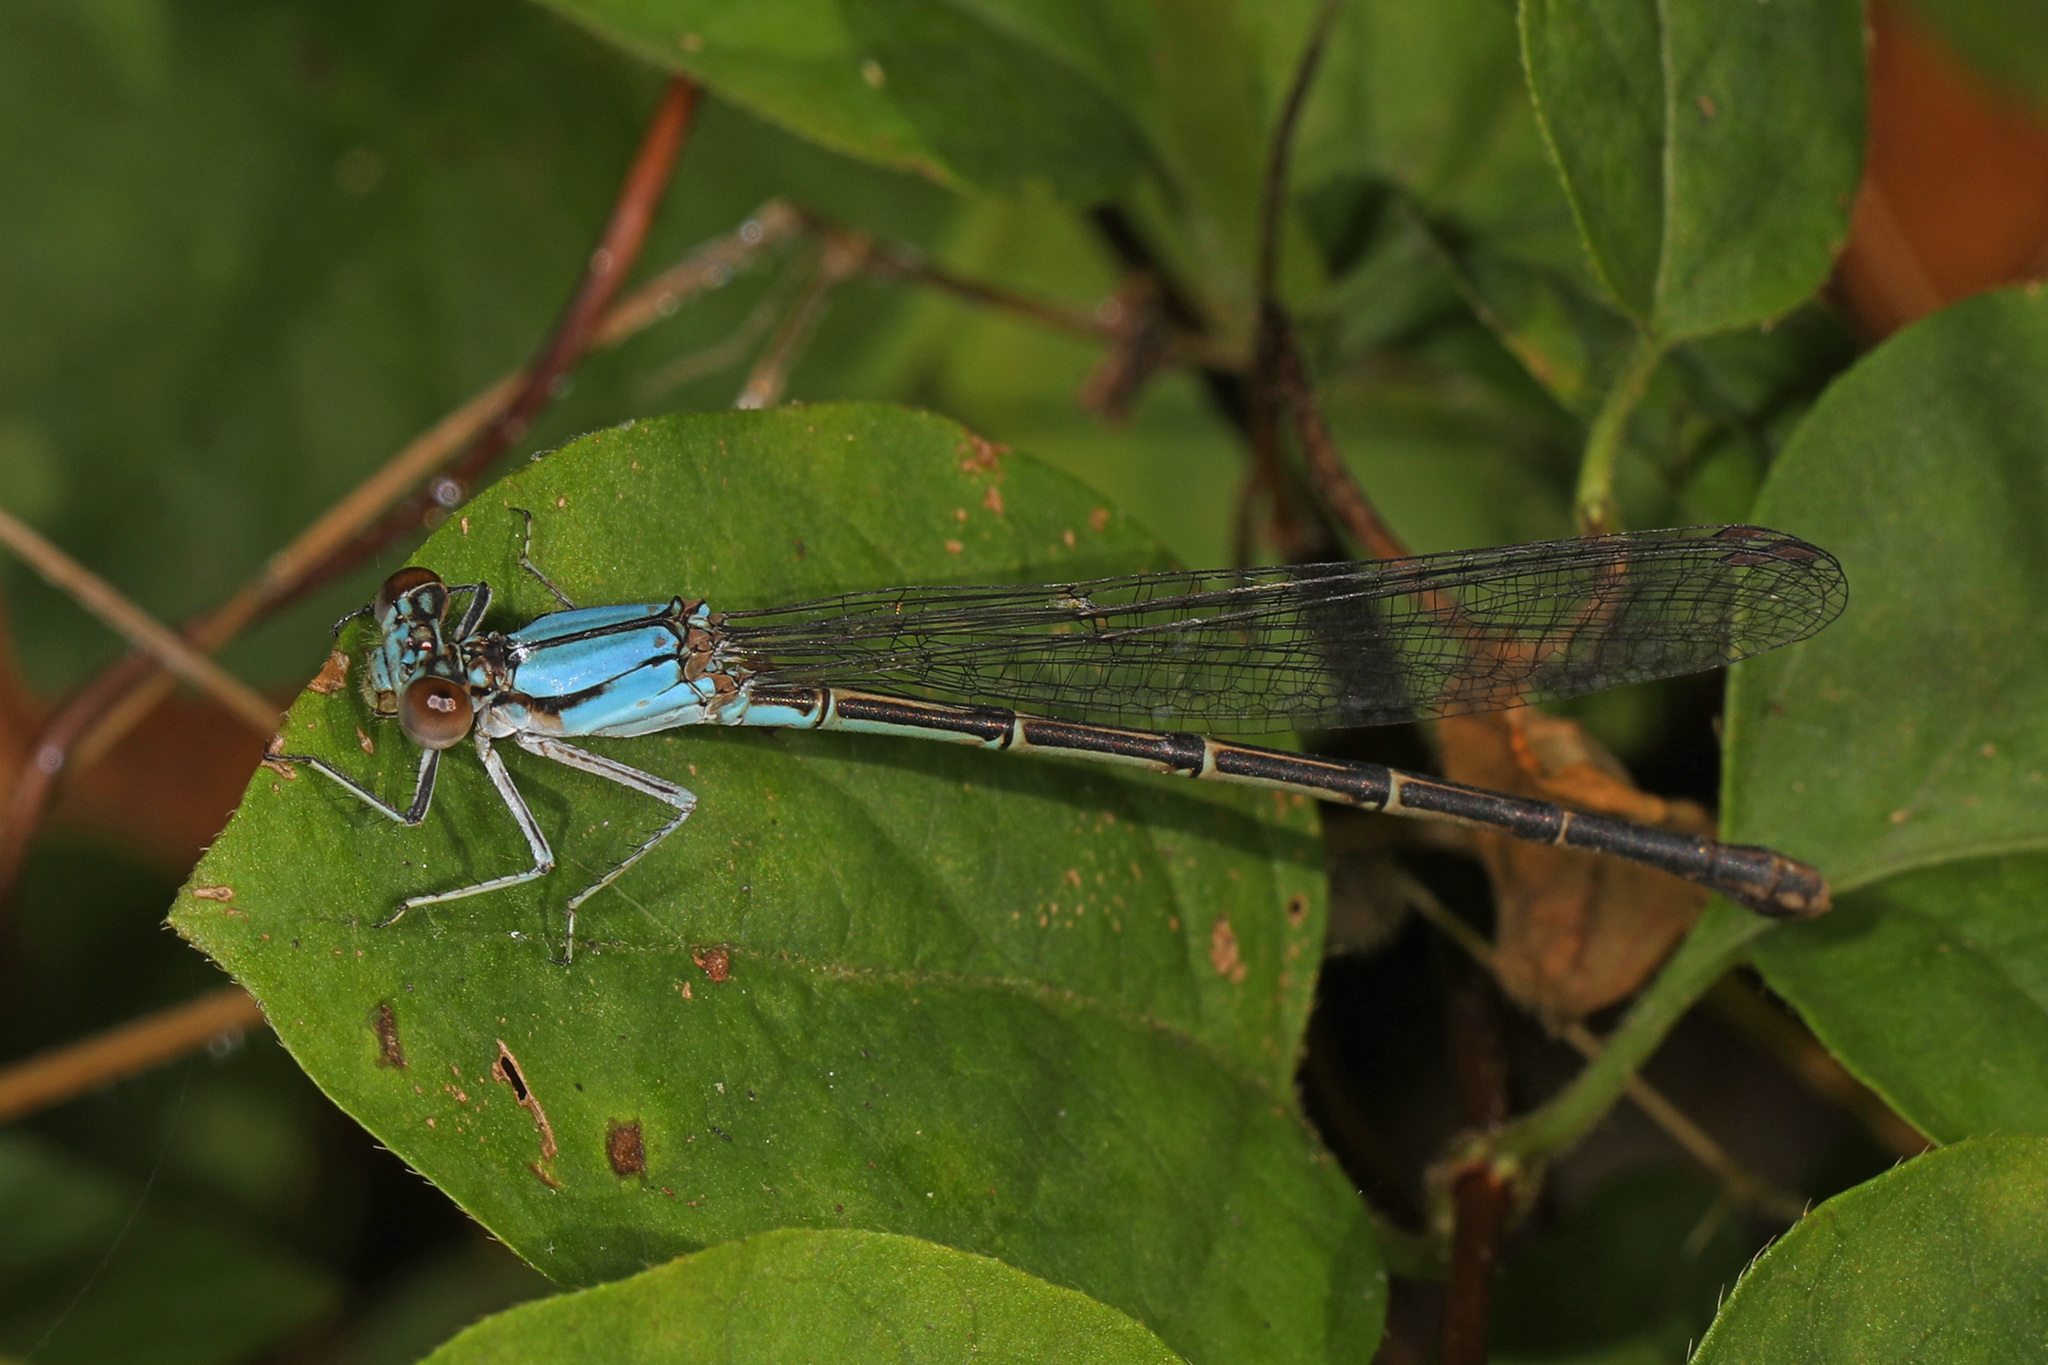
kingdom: Animalia
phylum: Arthropoda
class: Insecta
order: Odonata
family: Coenagrionidae
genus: Argia
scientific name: Argia apicalis
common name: Blue-fronted dancer
